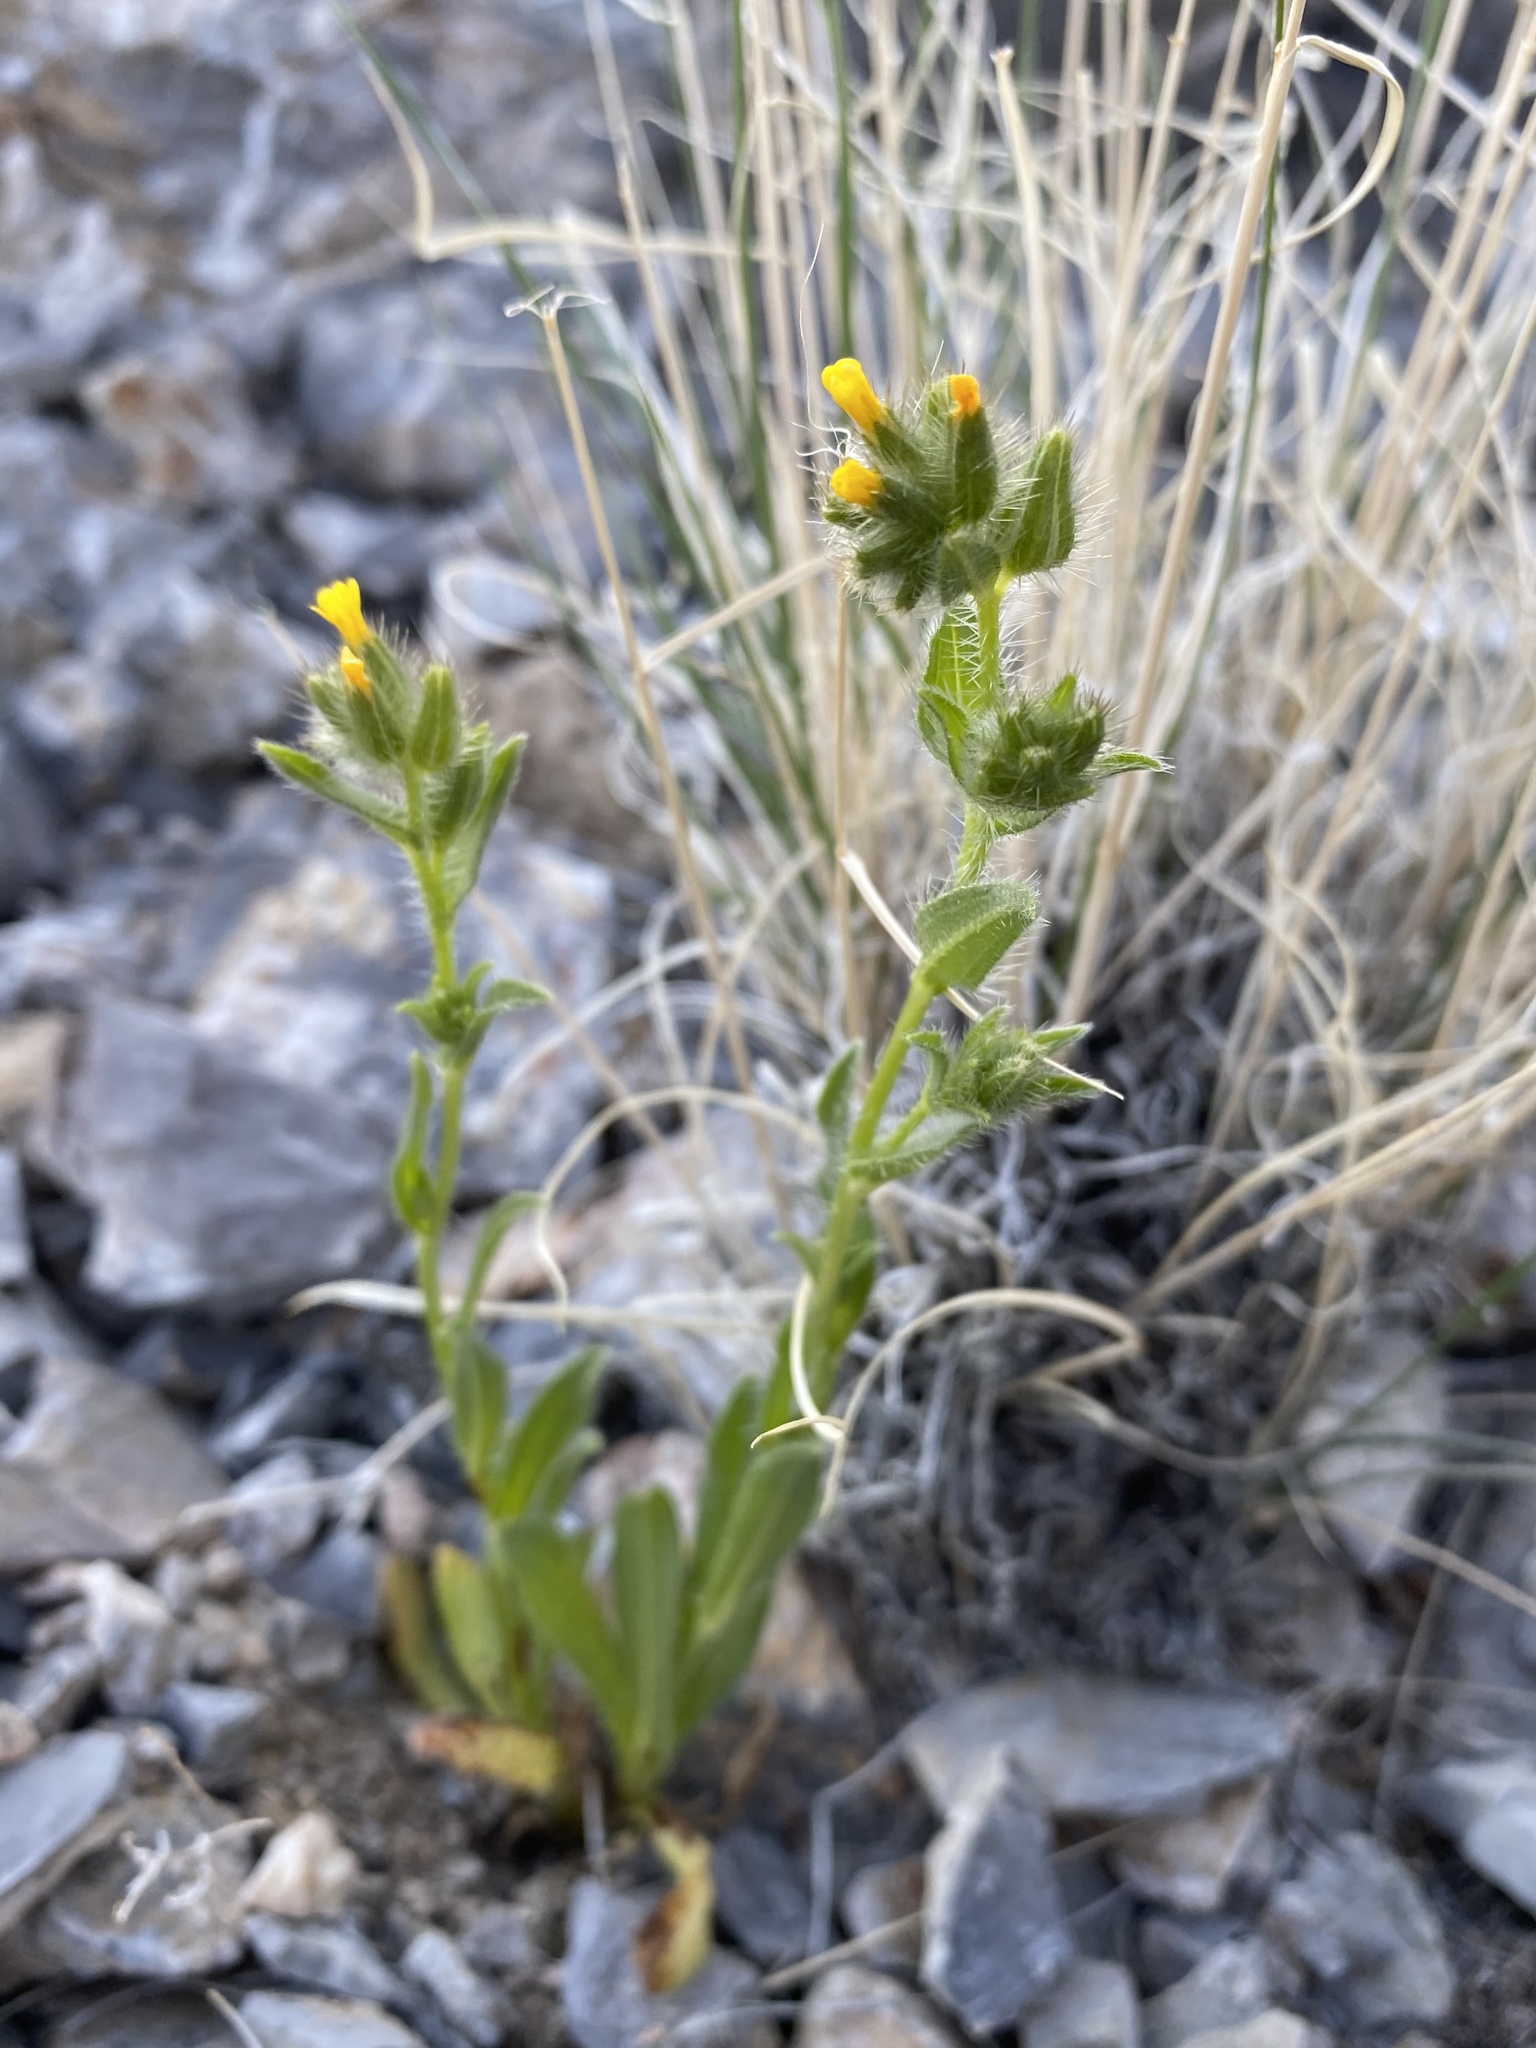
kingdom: Plantae
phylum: Tracheophyta
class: Magnoliopsida
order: Boraginales
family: Boraginaceae
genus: Amsinckia
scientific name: Amsinckia tessellata
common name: Tessellate fiddleneck
